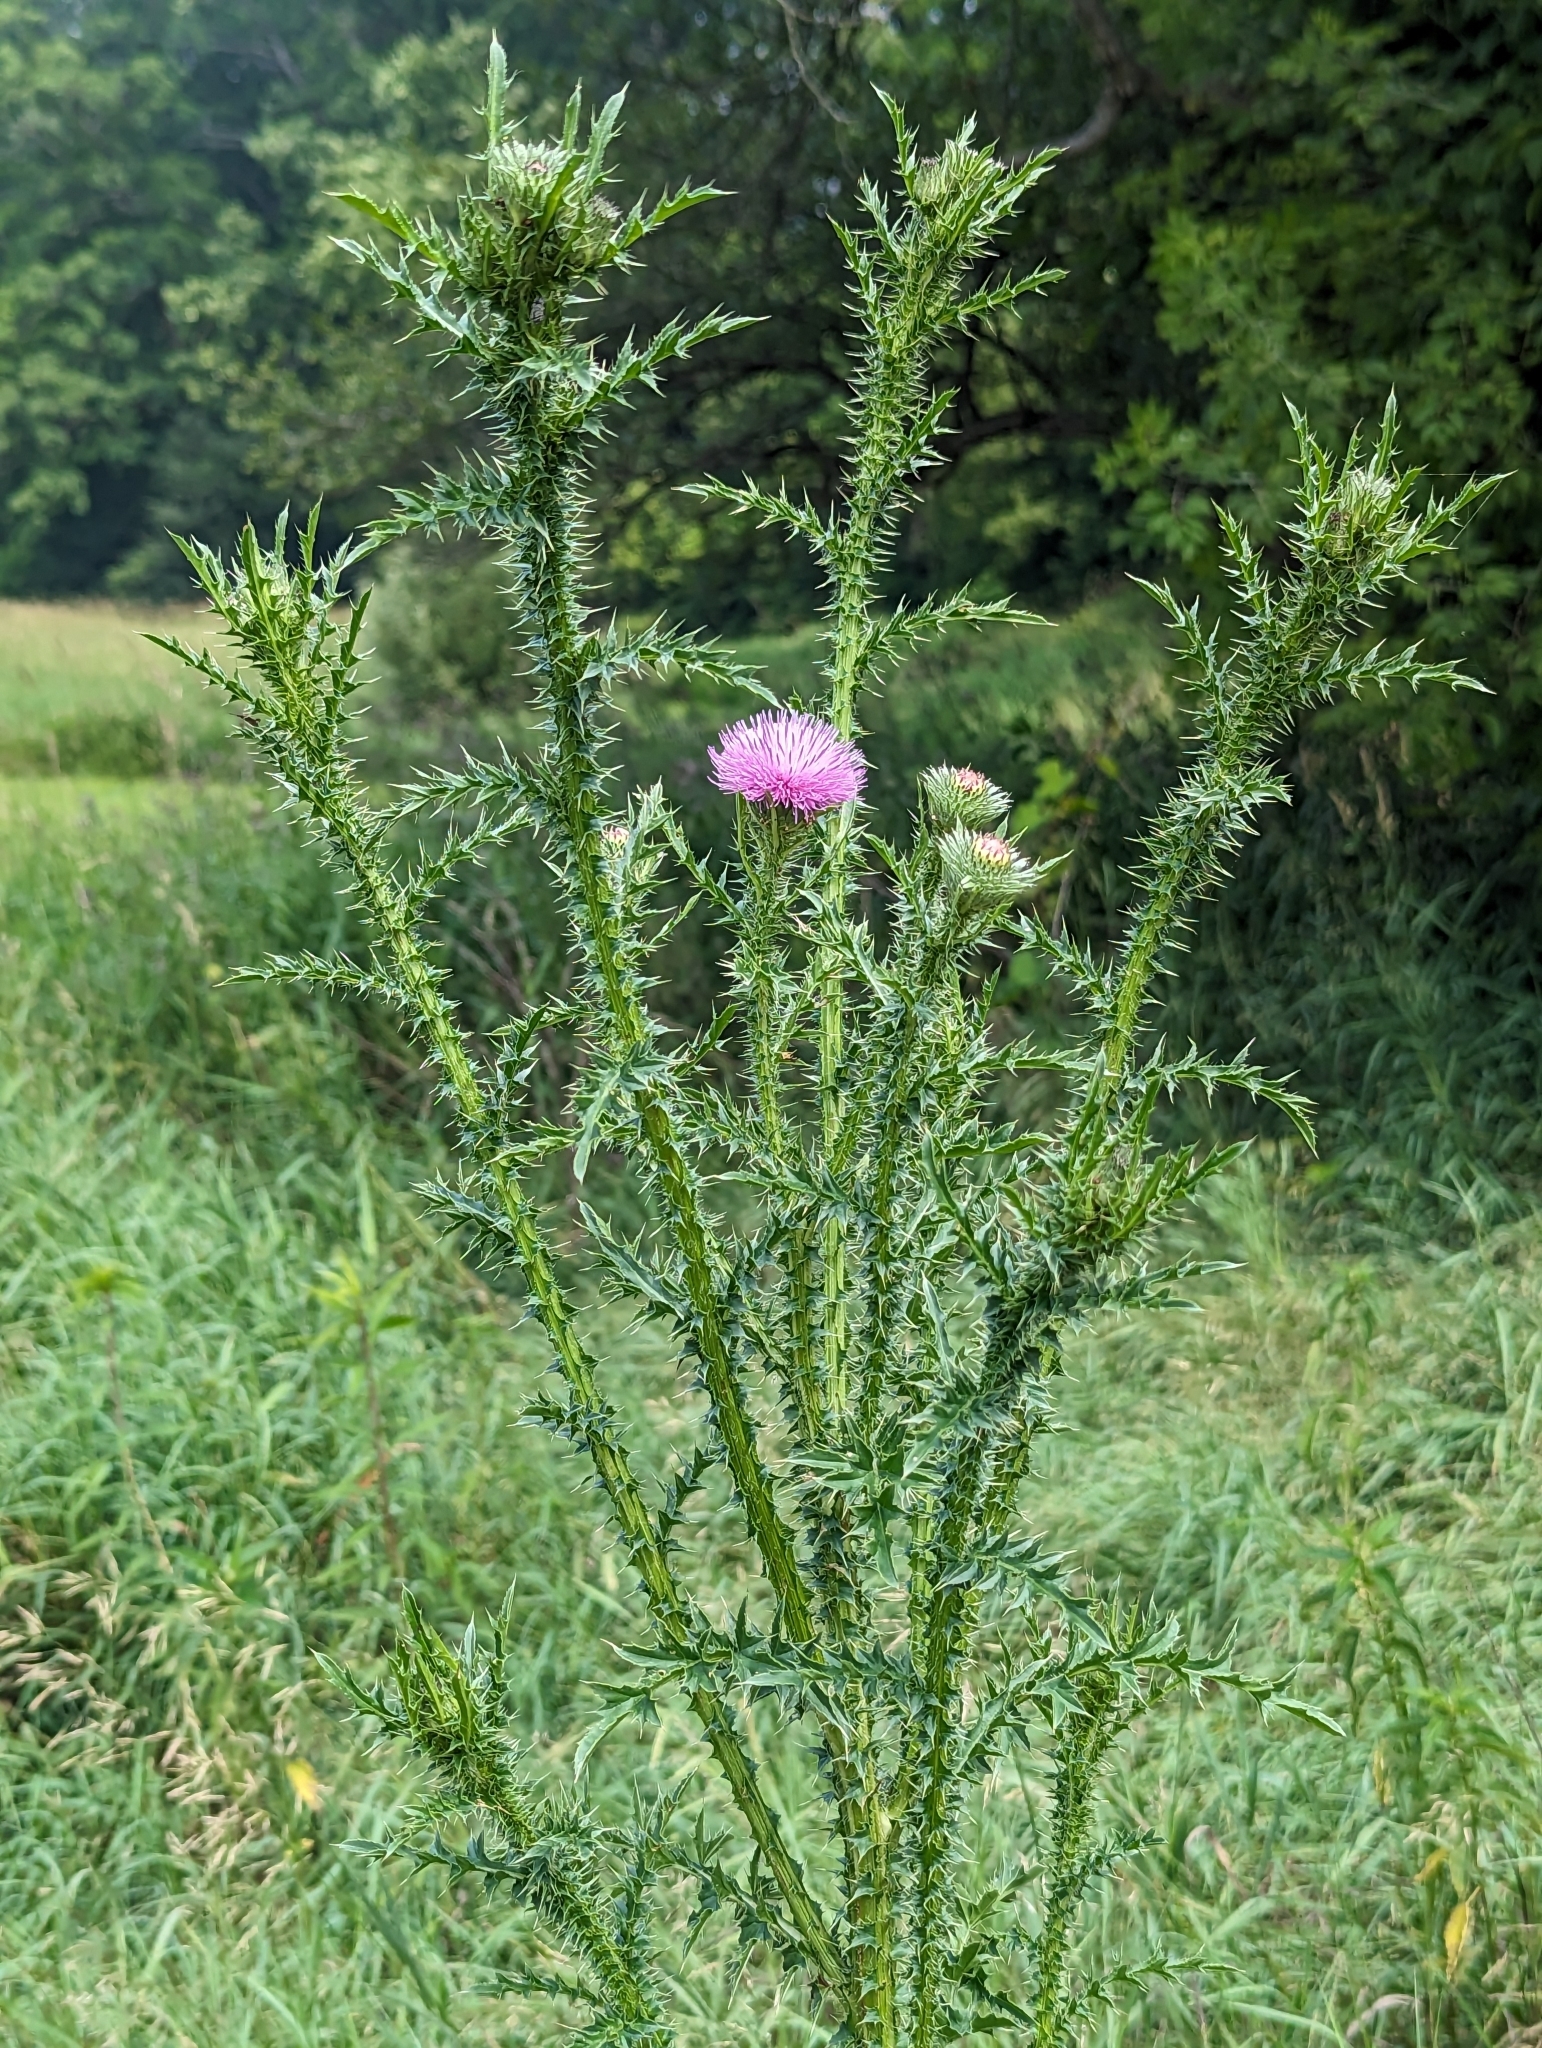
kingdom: Plantae
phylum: Tracheophyta
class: Magnoliopsida
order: Asterales
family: Asteraceae
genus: Carduus
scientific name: Carduus acanthoides
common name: Plumeless thistle
